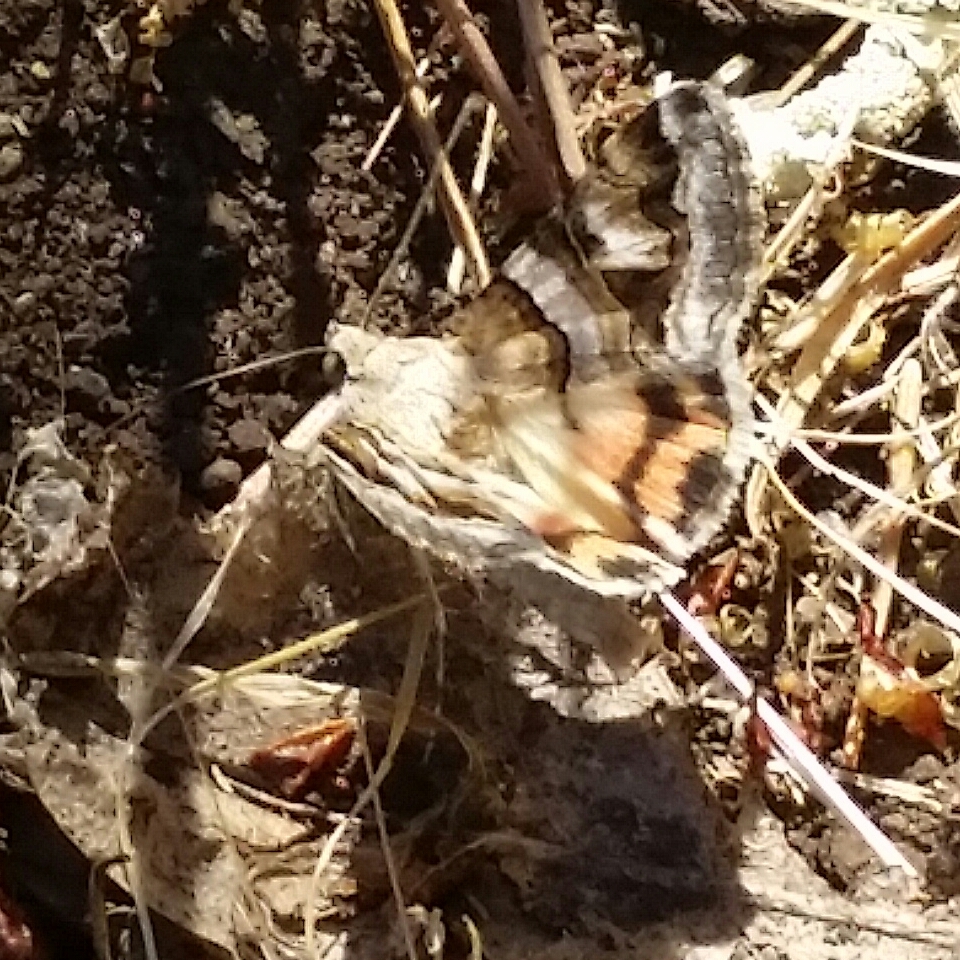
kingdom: Animalia
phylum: Arthropoda
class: Insecta
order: Lepidoptera
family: Erebidae
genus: Drasteria
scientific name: Drasteria howlandii
